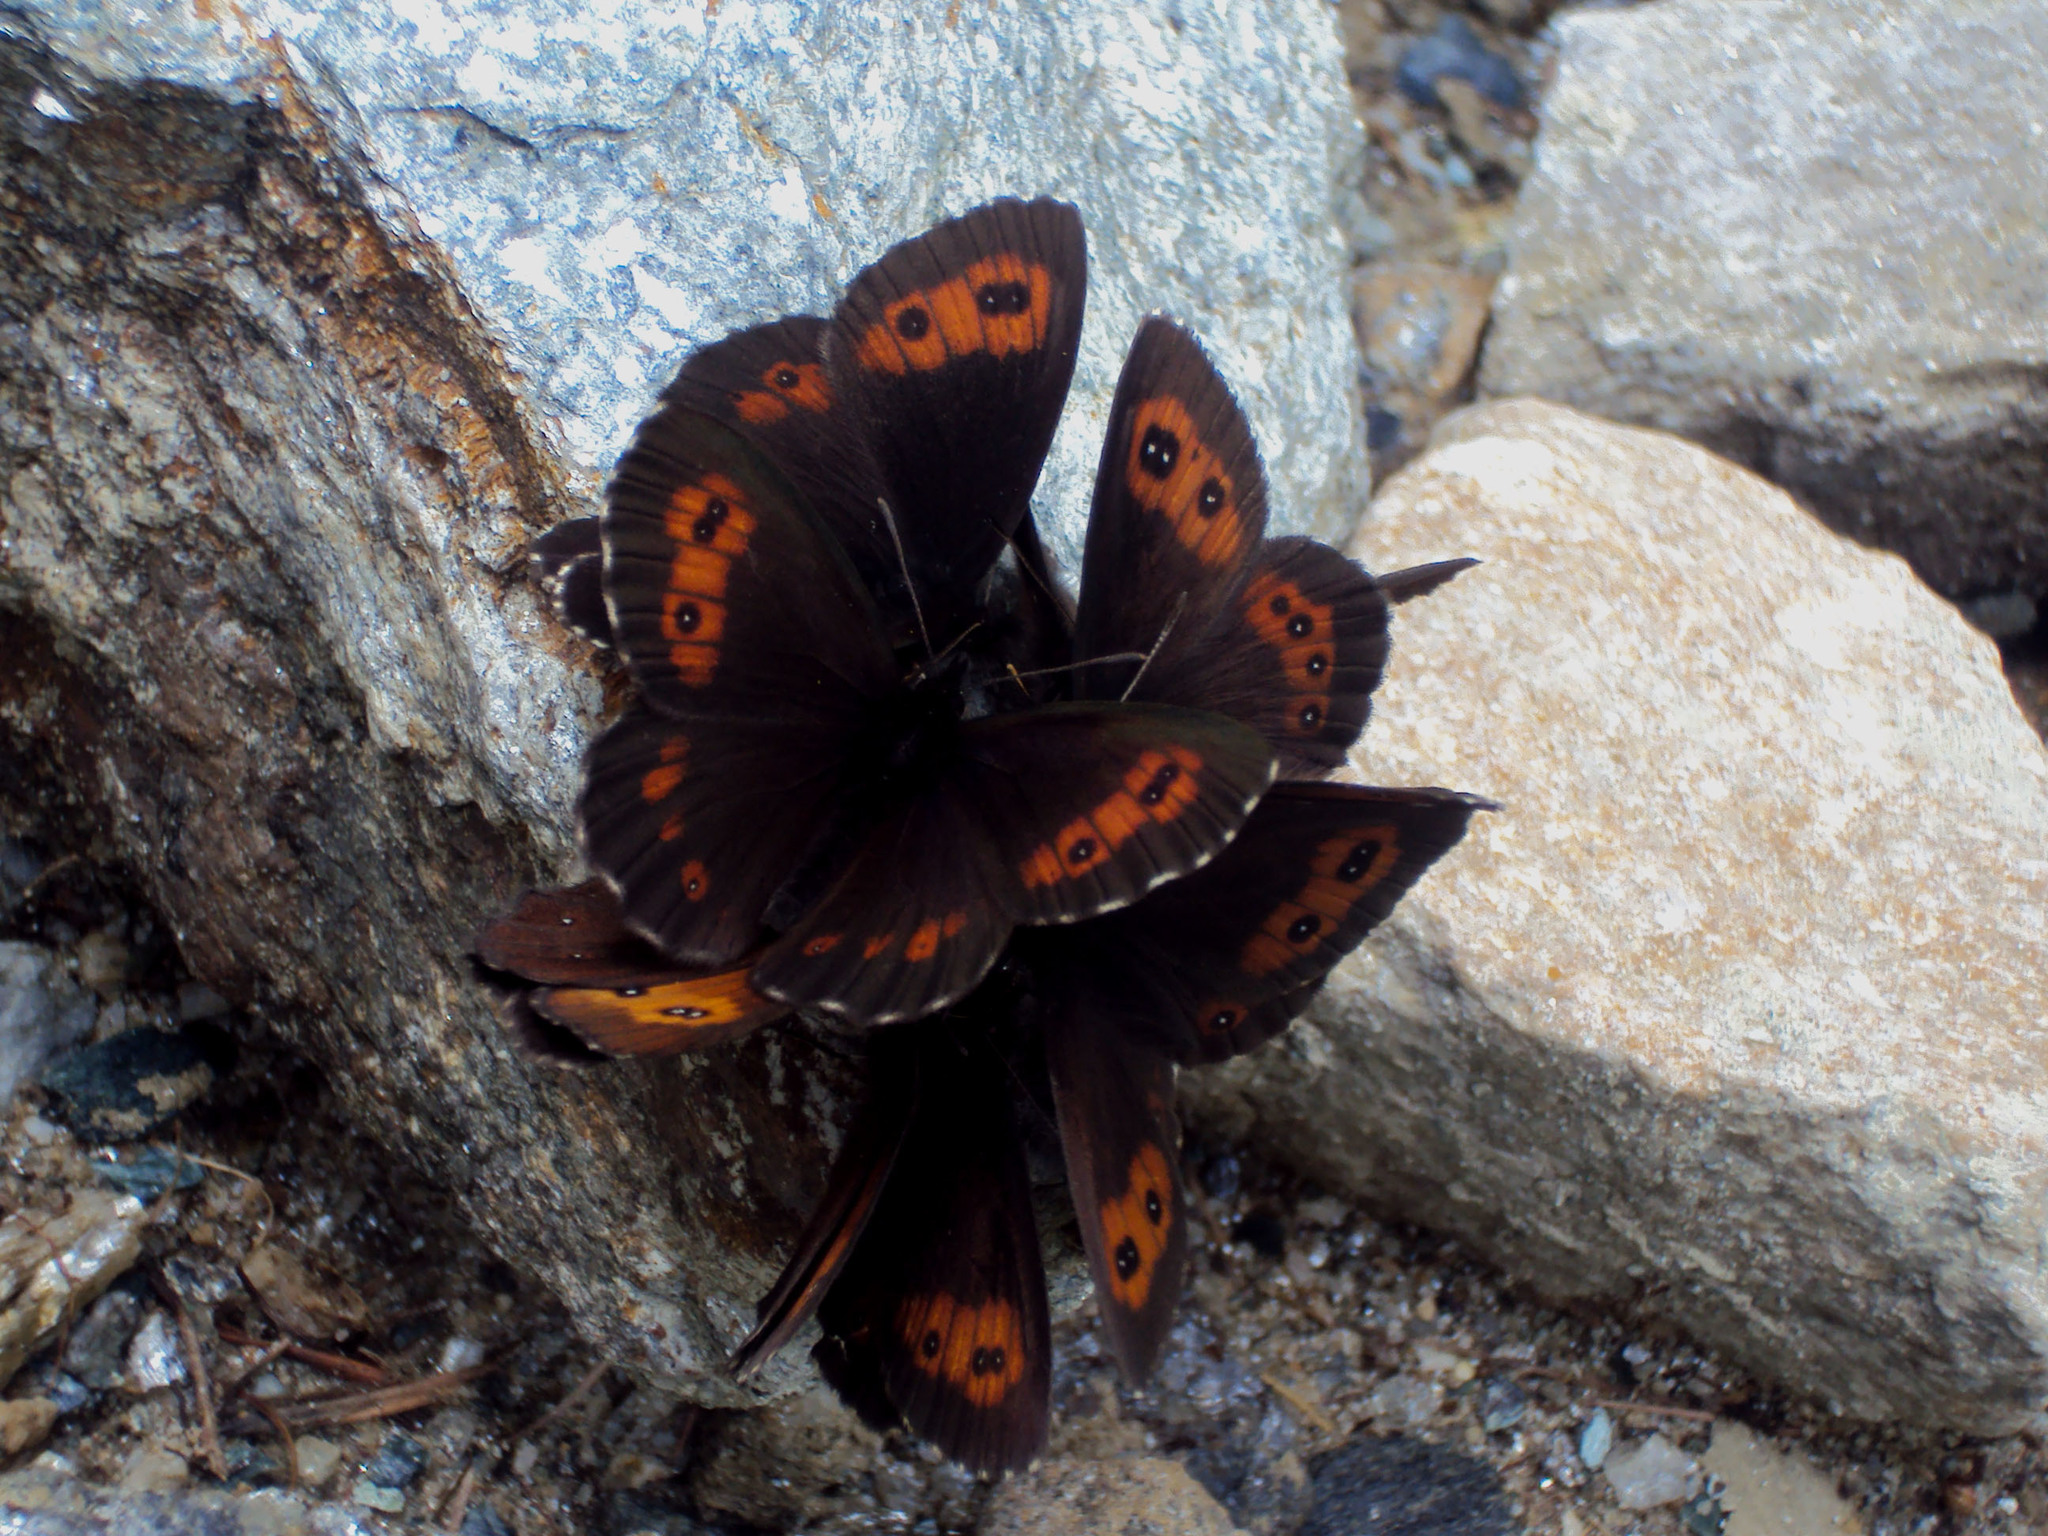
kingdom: Animalia
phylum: Arthropoda
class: Insecta
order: Lepidoptera
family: Nymphalidae
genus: Erebia
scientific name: Erebia euryale
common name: Large ringlet
